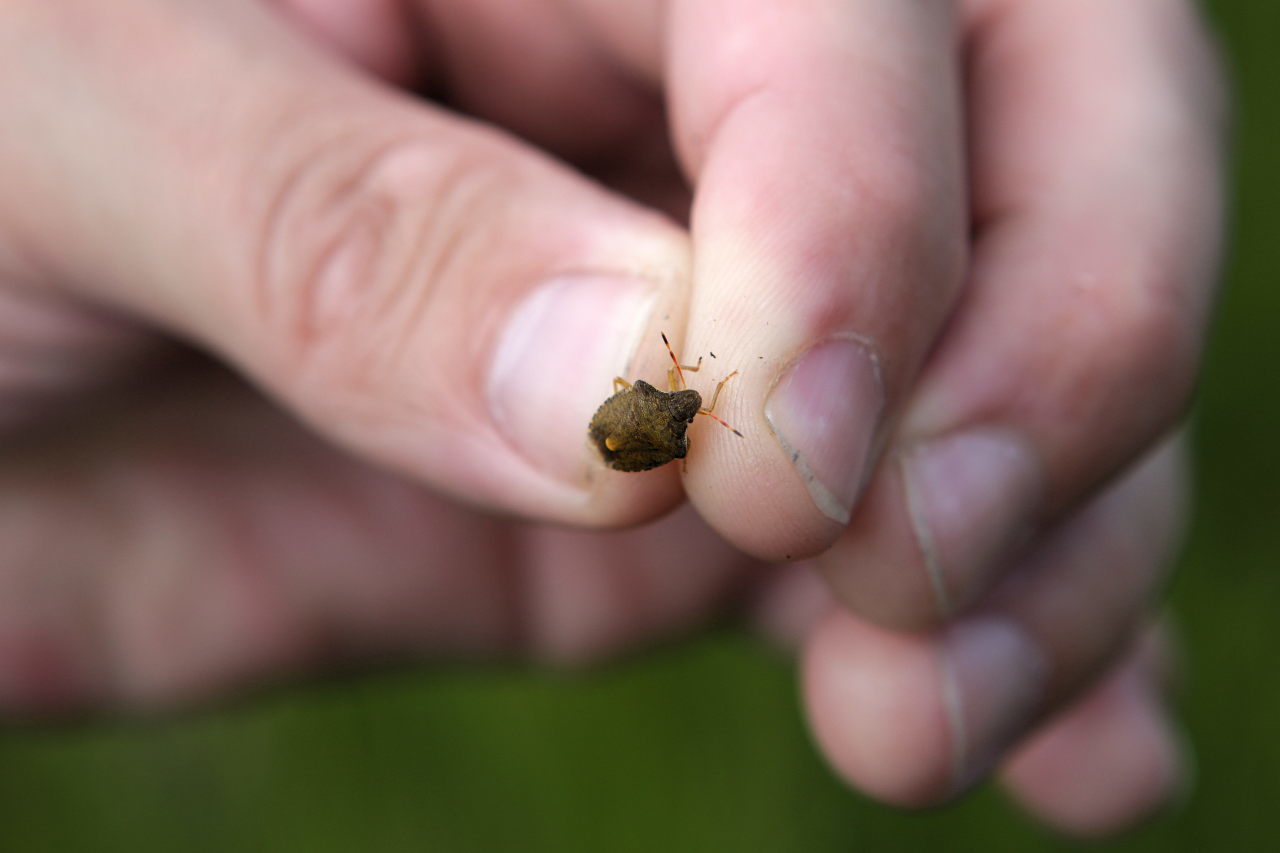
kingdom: Animalia
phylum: Arthropoda
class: Insecta
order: Hemiptera
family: Pentatomidae
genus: Holcostethus
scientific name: Holcostethus strictus
